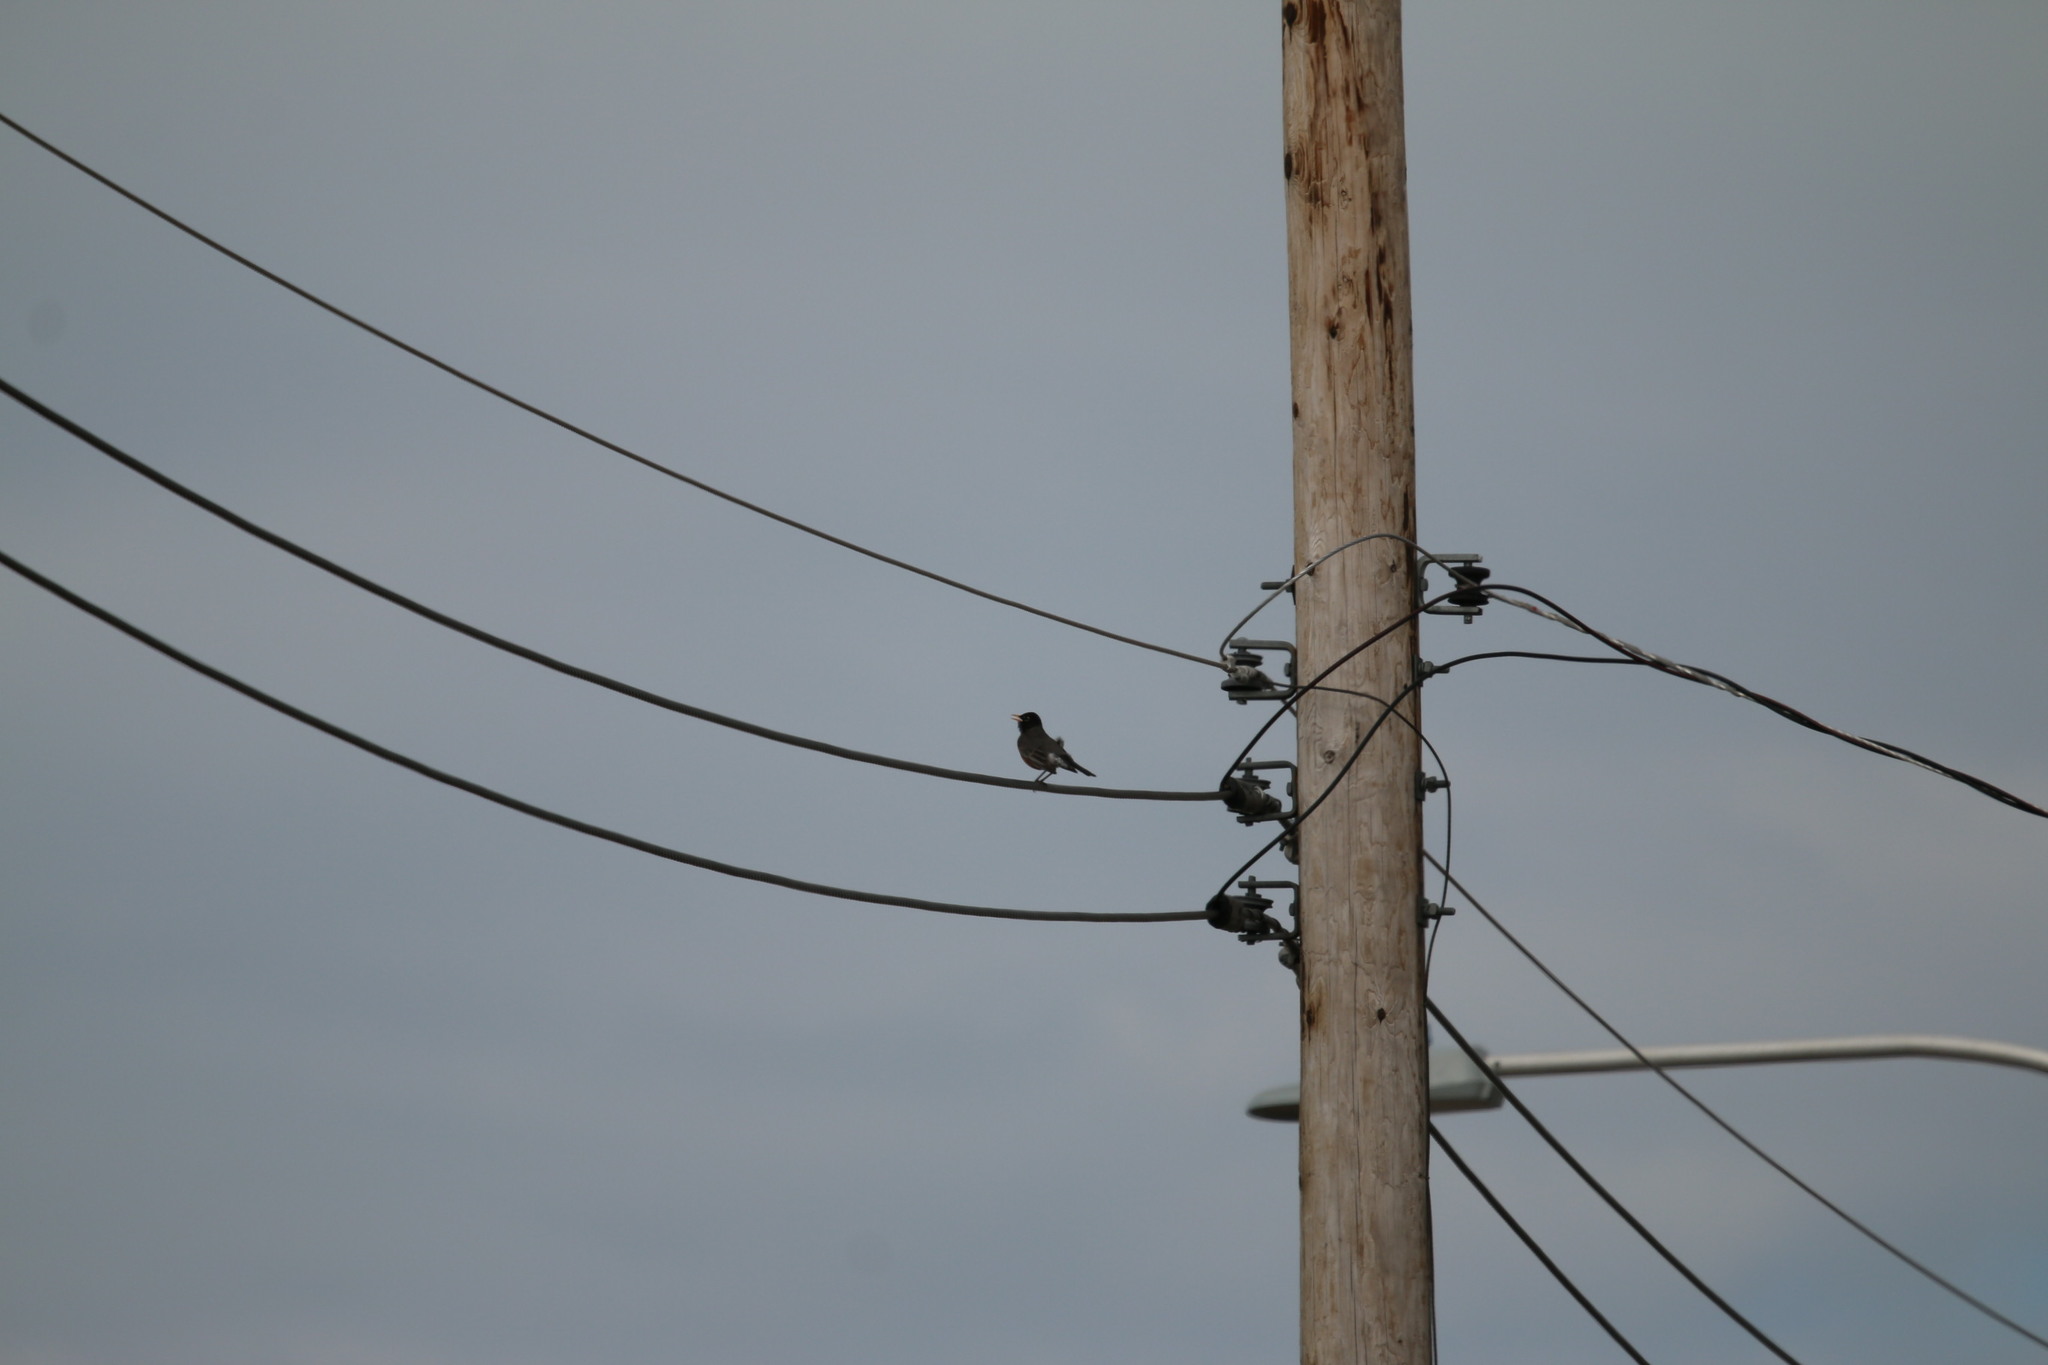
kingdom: Animalia
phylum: Chordata
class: Aves
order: Passeriformes
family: Turdidae
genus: Turdus
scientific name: Turdus migratorius
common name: American robin
